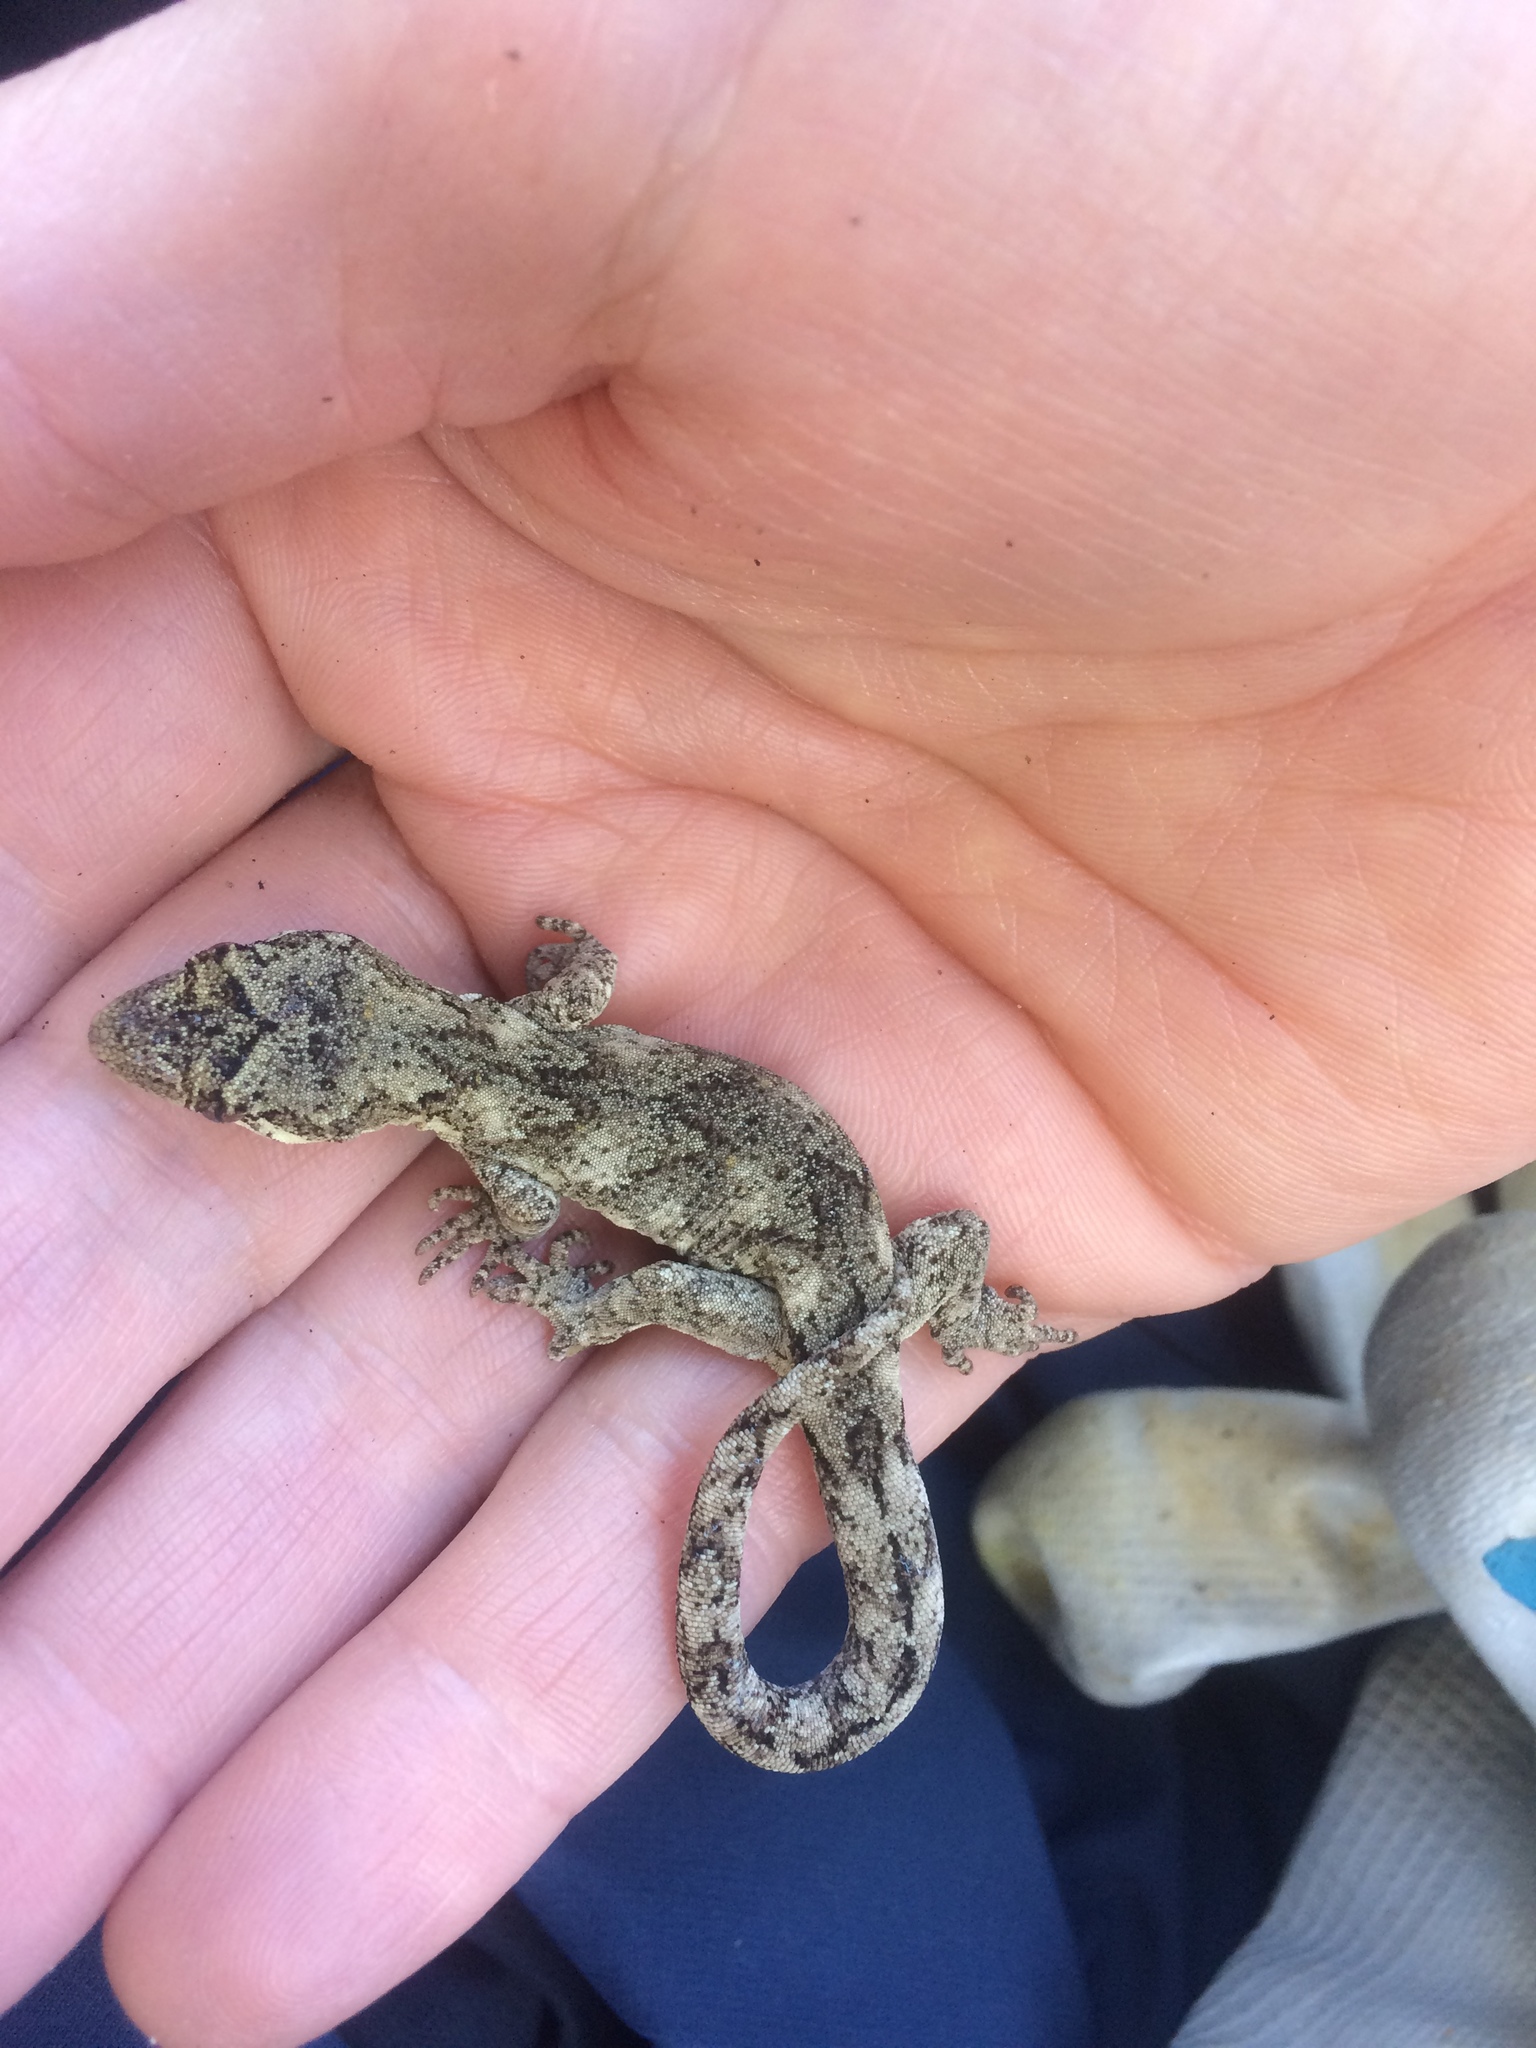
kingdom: Animalia
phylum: Chordata
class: Squamata
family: Diplodactylidae
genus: Mokopirirakau
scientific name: Mokopirirakau granulatus
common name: Forest gecko
